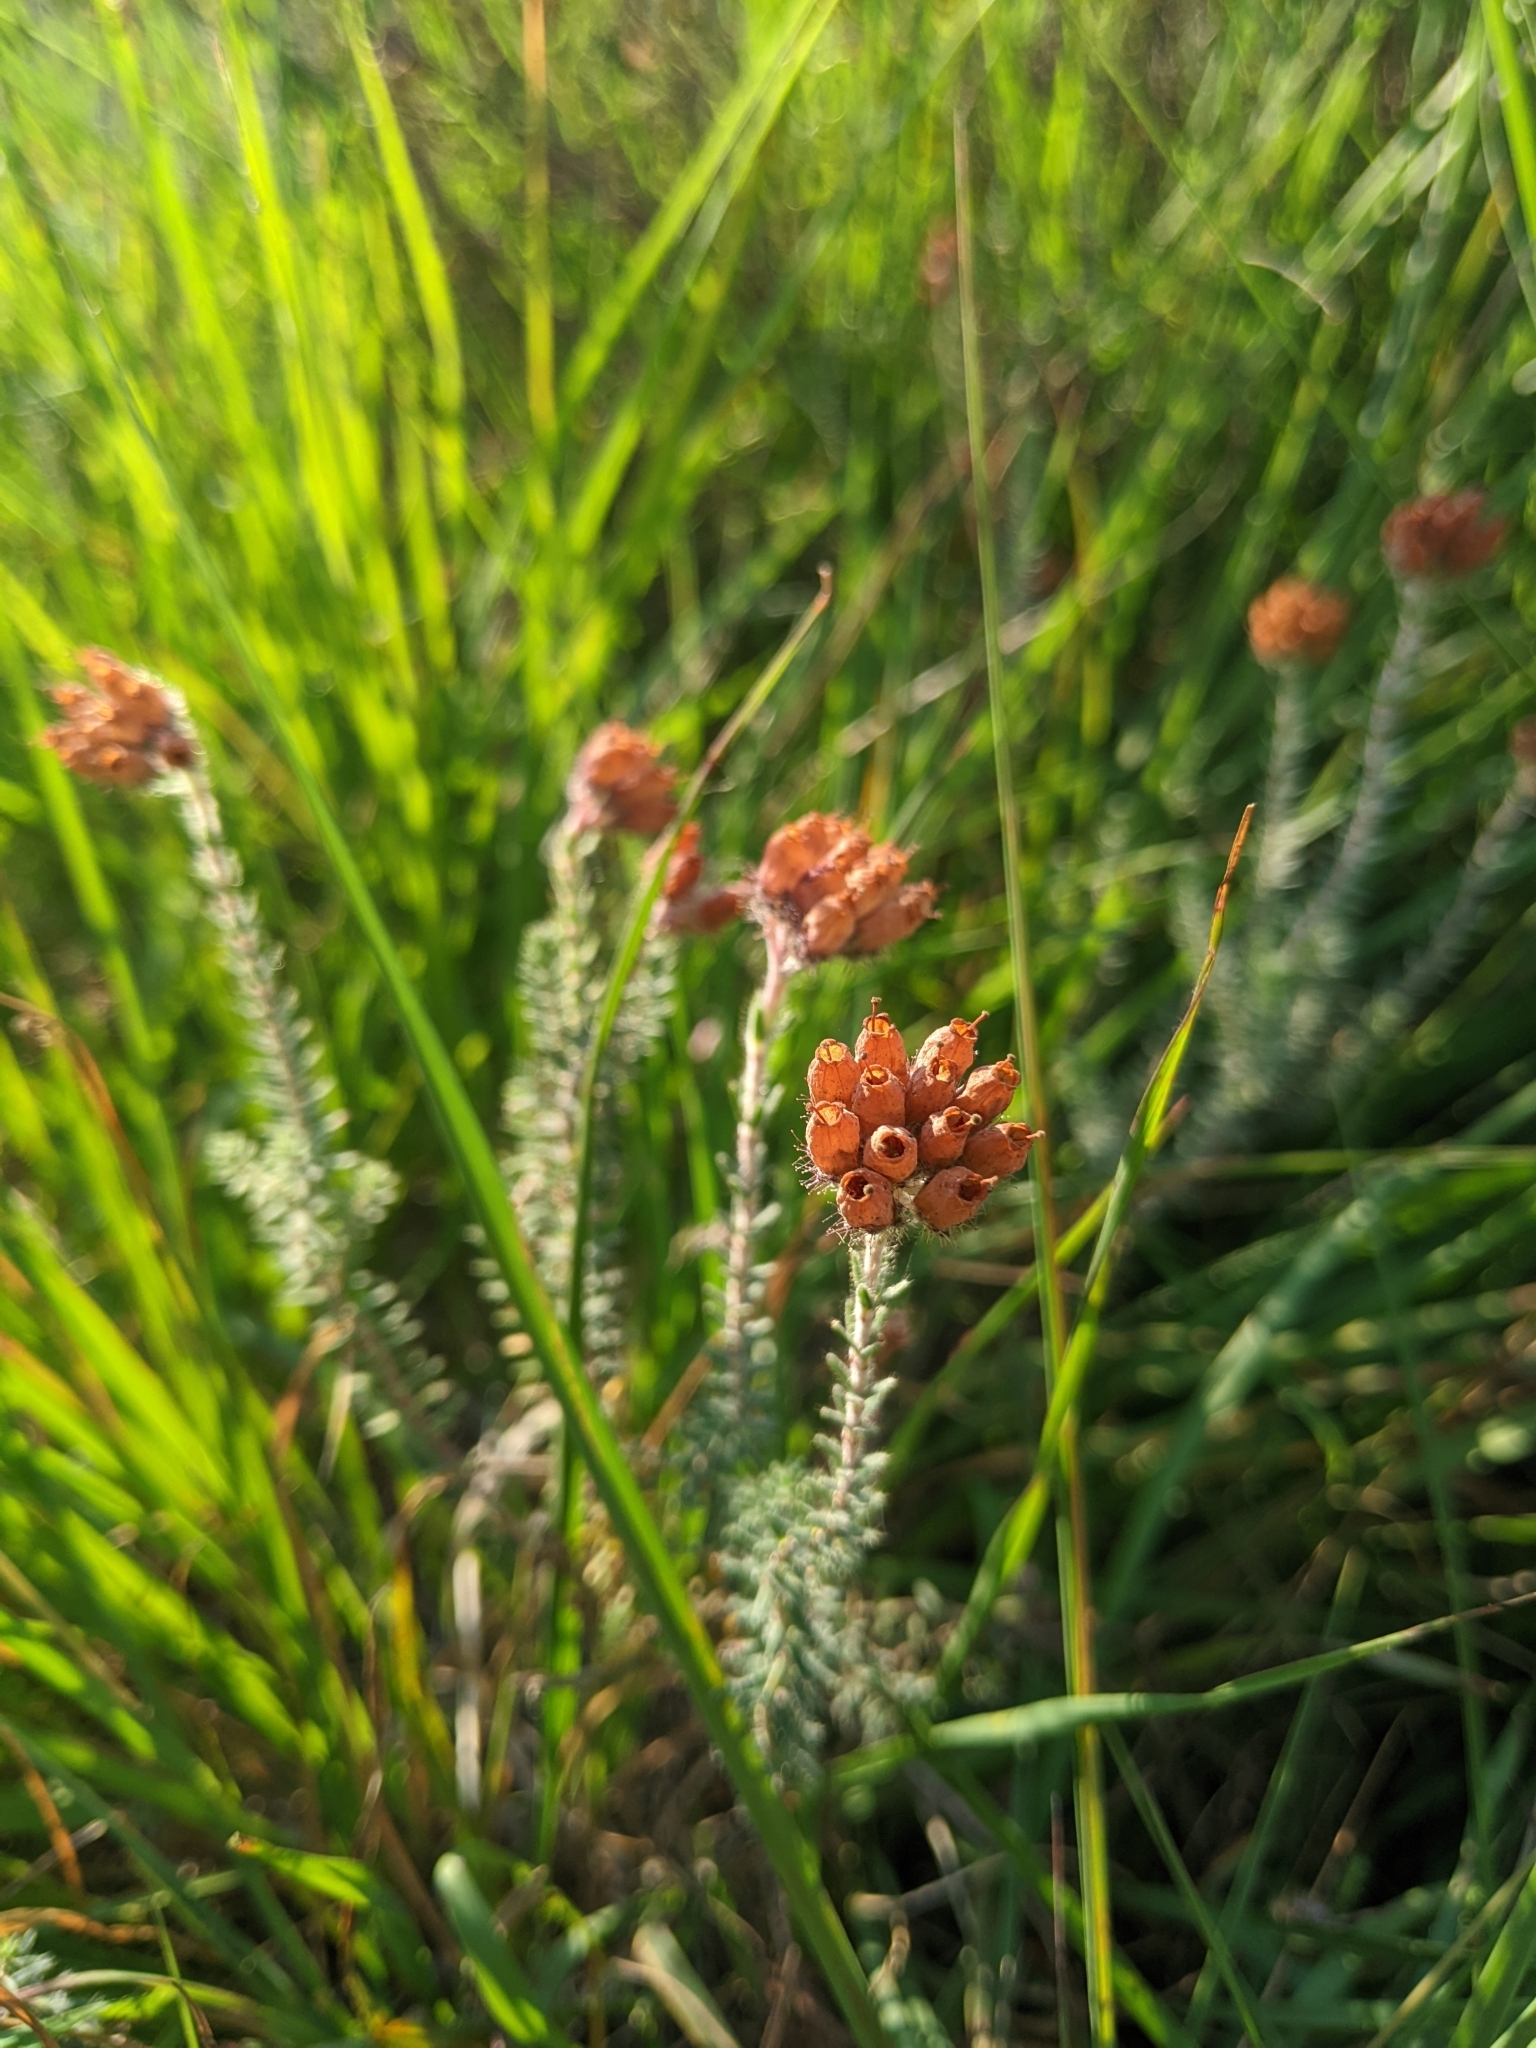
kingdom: Plantae
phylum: Tracheophyta
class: Magnoliopsida
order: Ericales
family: Ericaceae
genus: Erica
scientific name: Erica tetralix
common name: Cross-leaved heath
